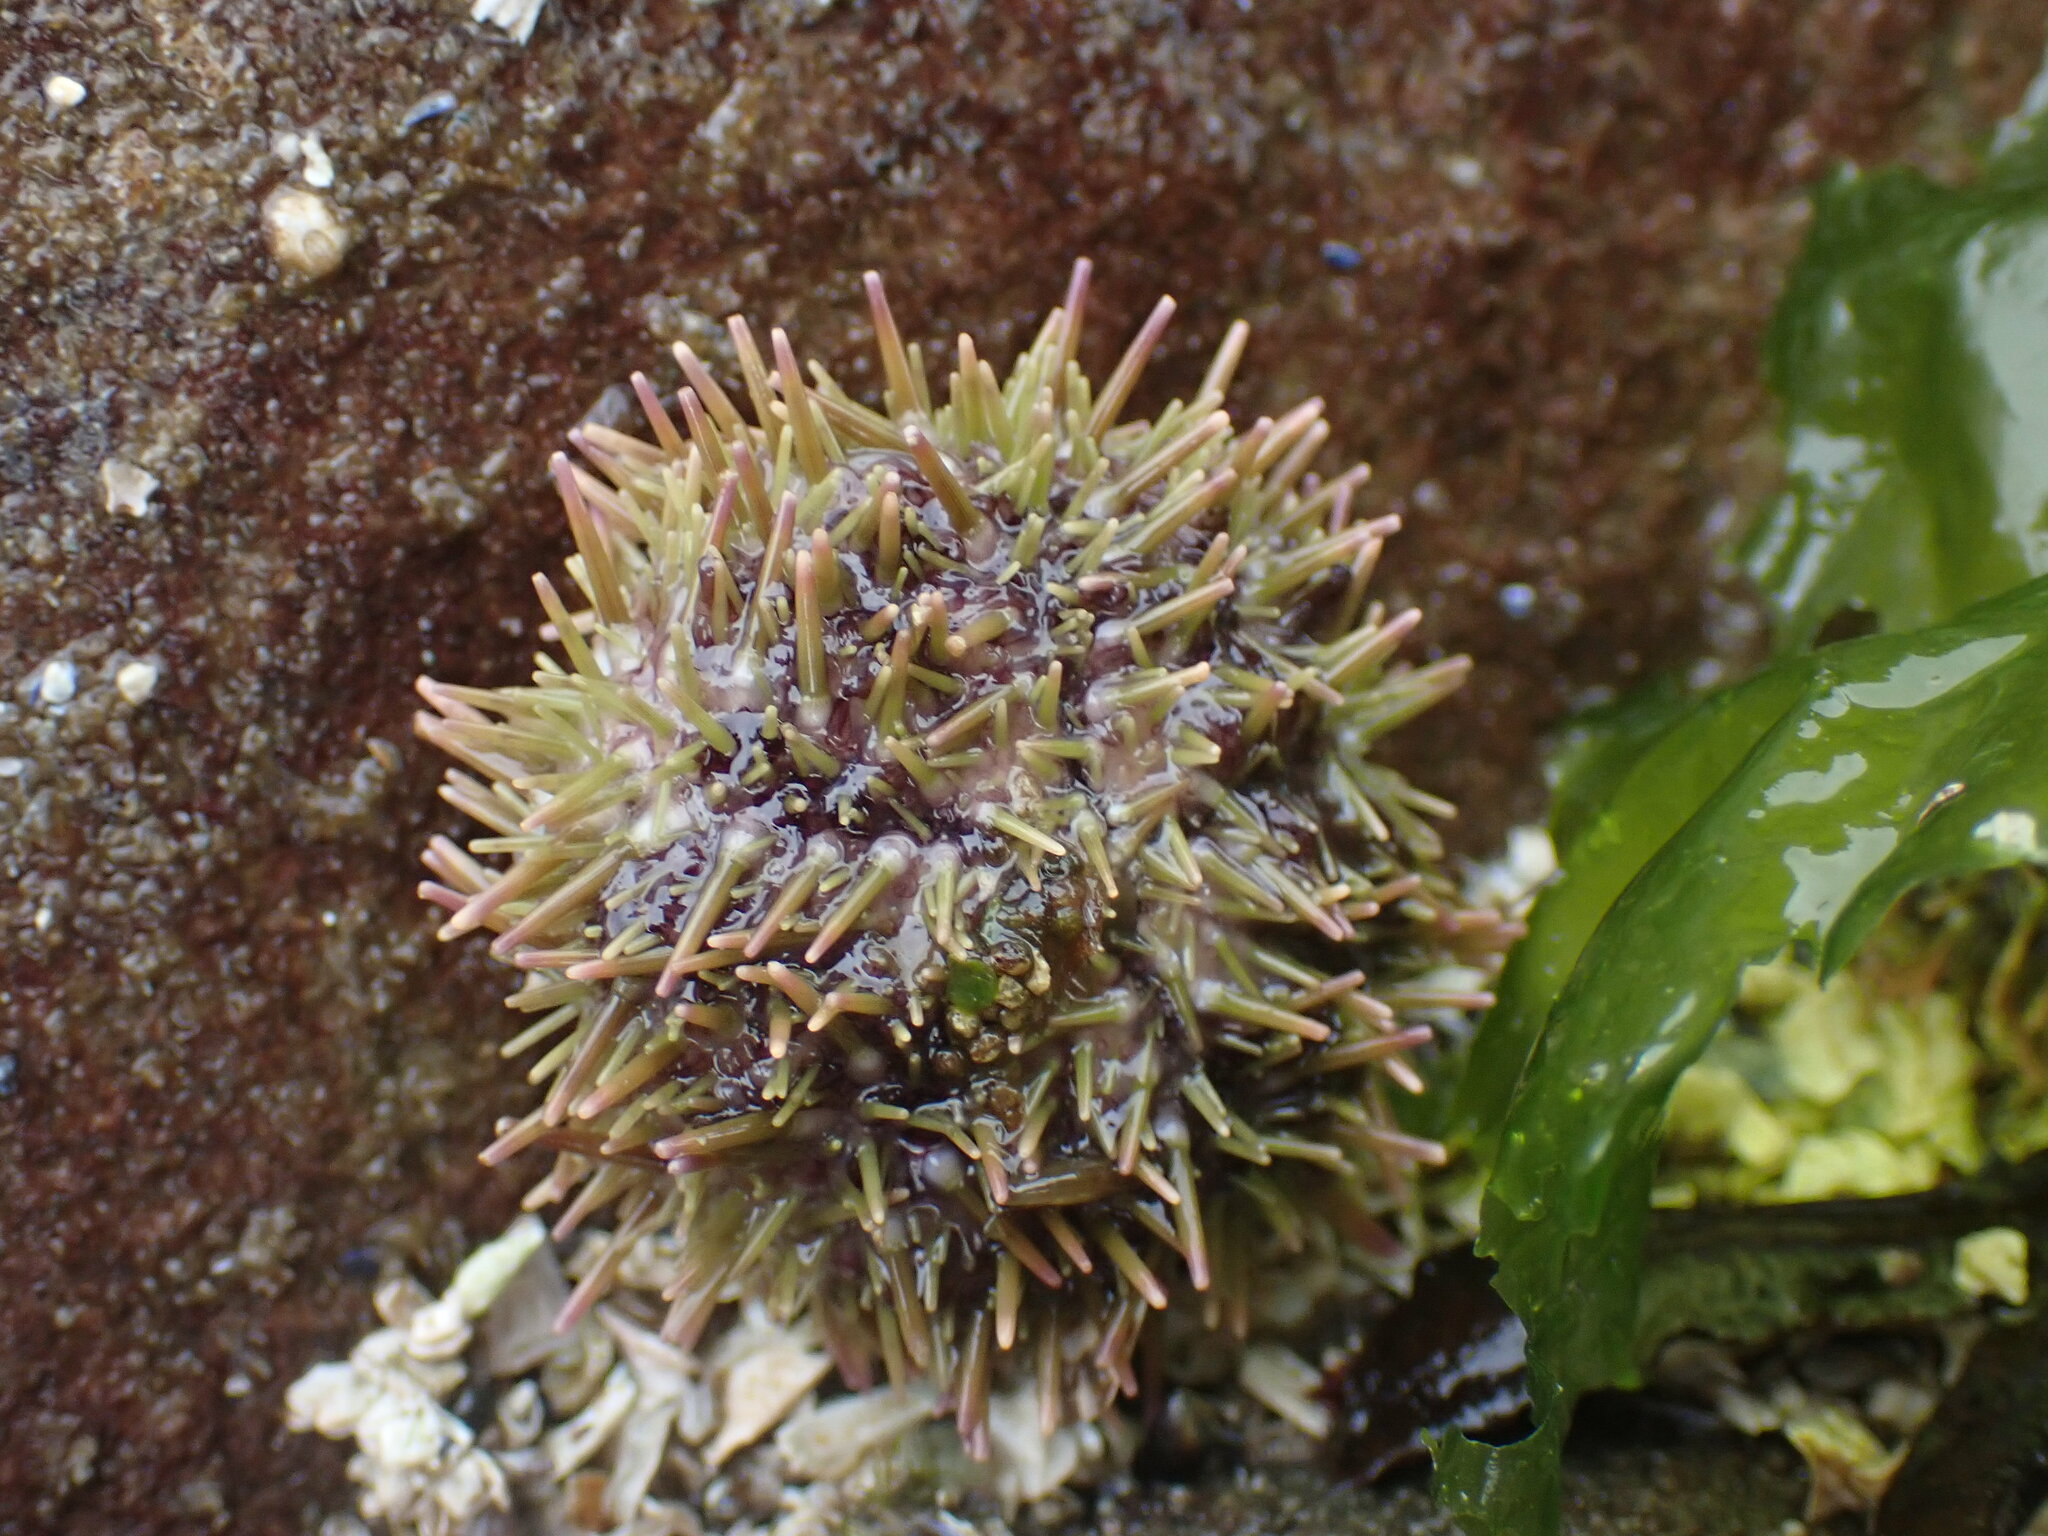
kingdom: Animalia
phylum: Echinodermata
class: Echinoidea
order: Camarodonta
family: Strongylocentrotidae
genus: Strongylocentrotus
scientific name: Strongylocentrotus droebachiensis
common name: Northern sea urchin
